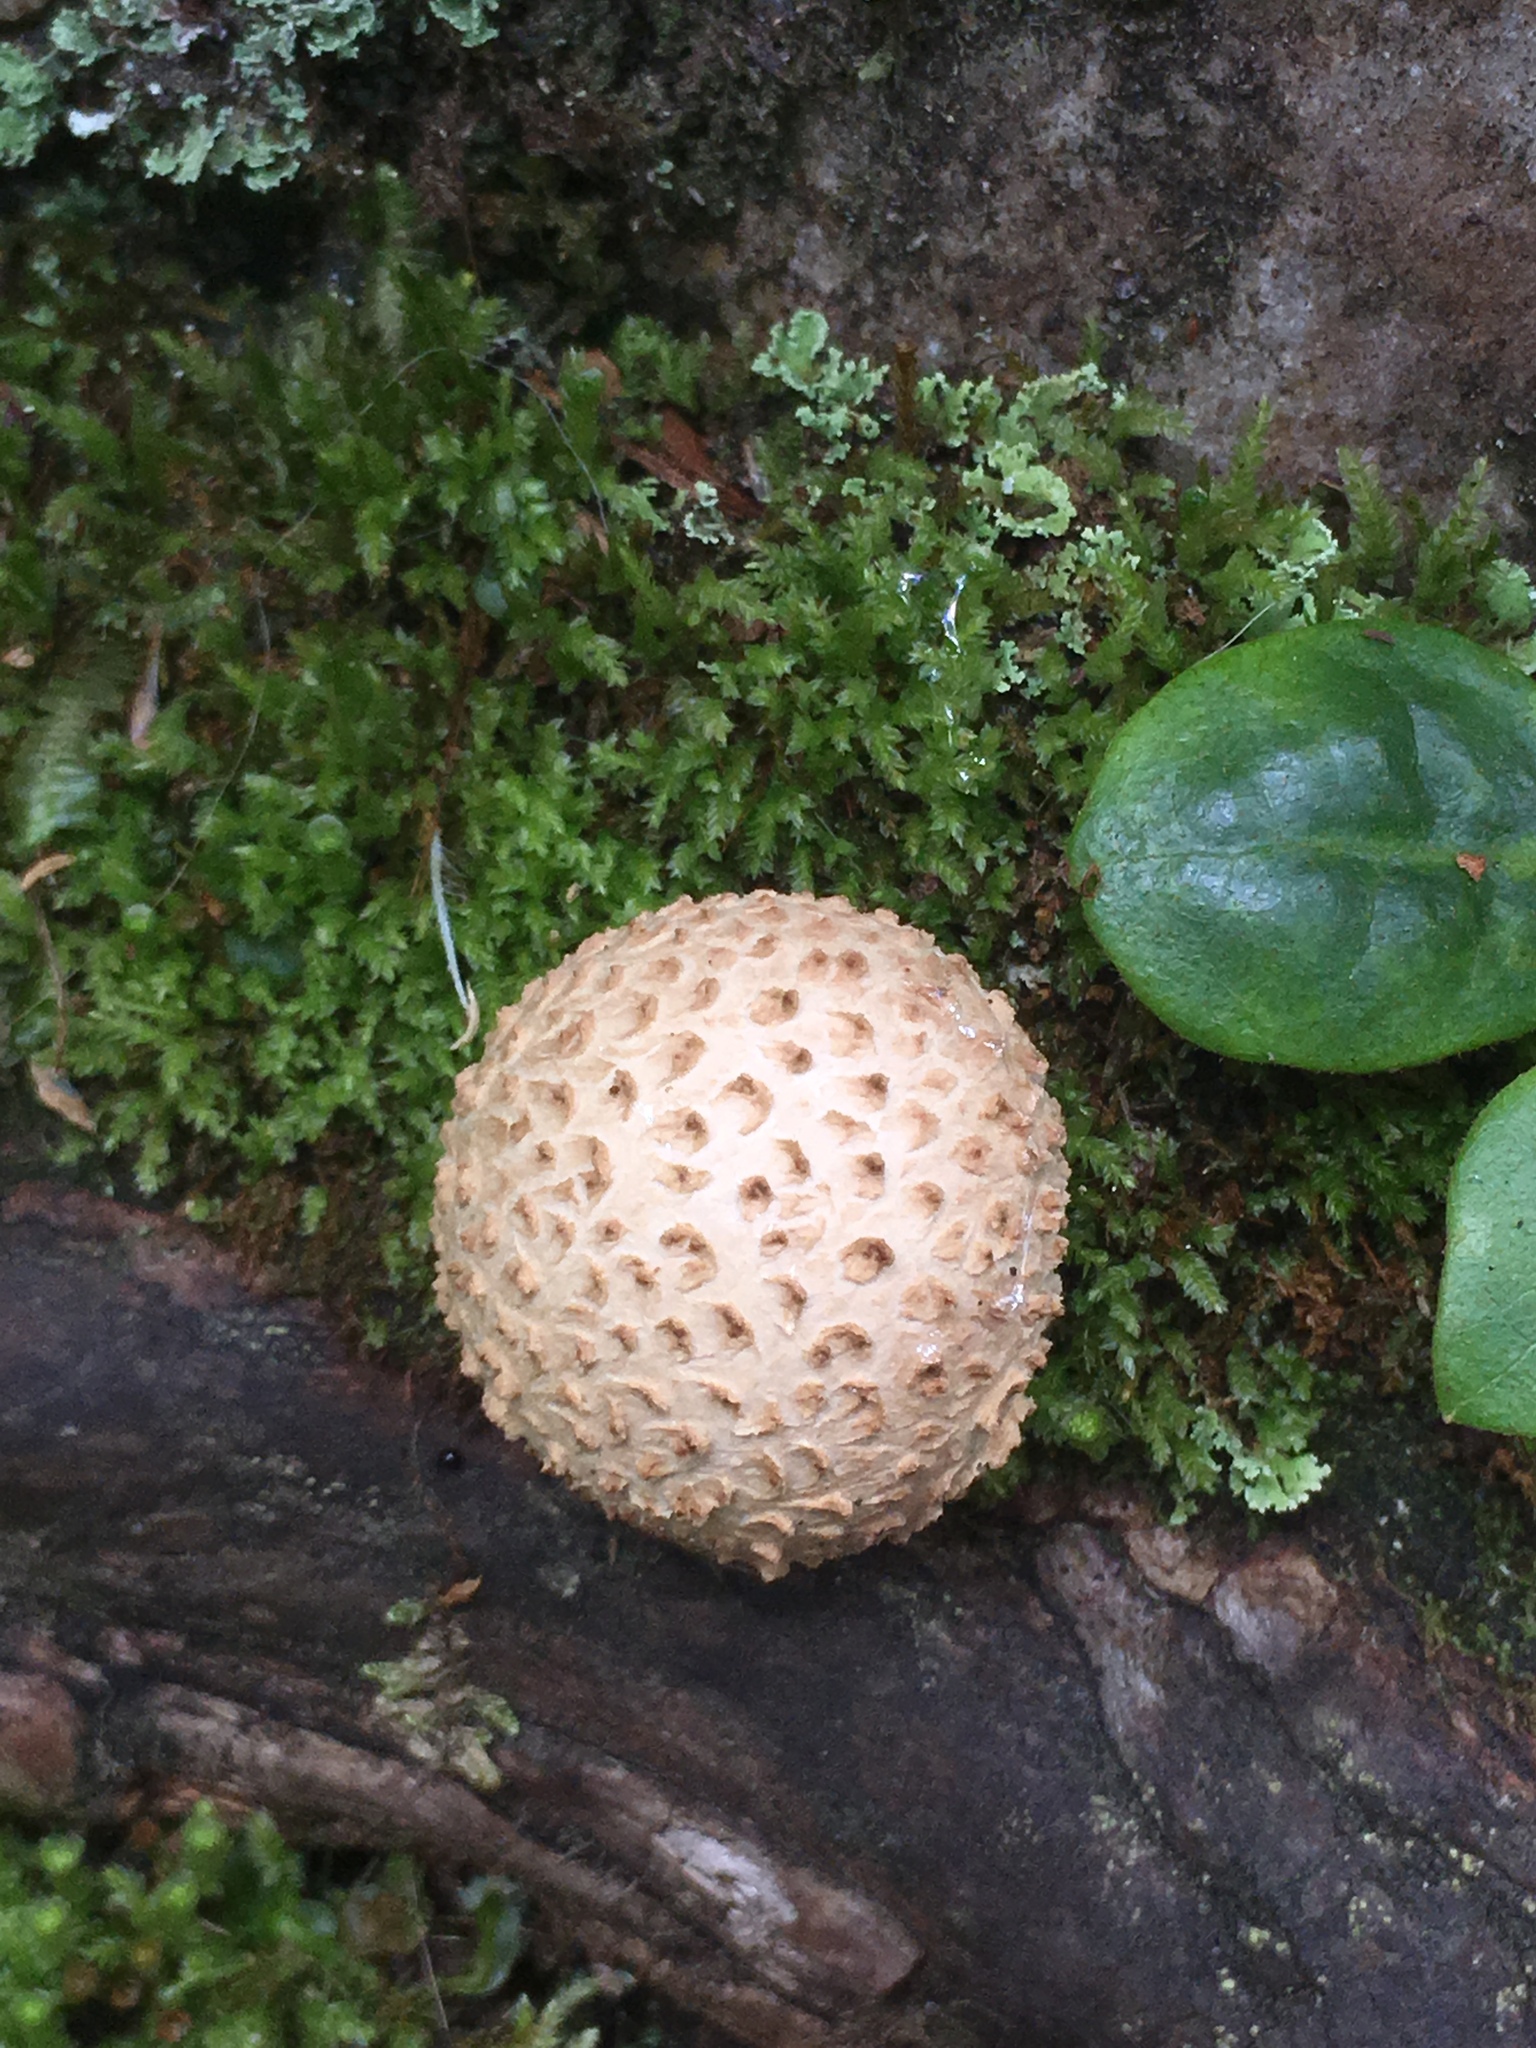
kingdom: Fungi
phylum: Basidiomycota
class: Agaricomycetes
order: Boletales
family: Sclerodermataceae
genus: Scleroderma
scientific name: Scleroderma citrinum
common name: Common earthball
